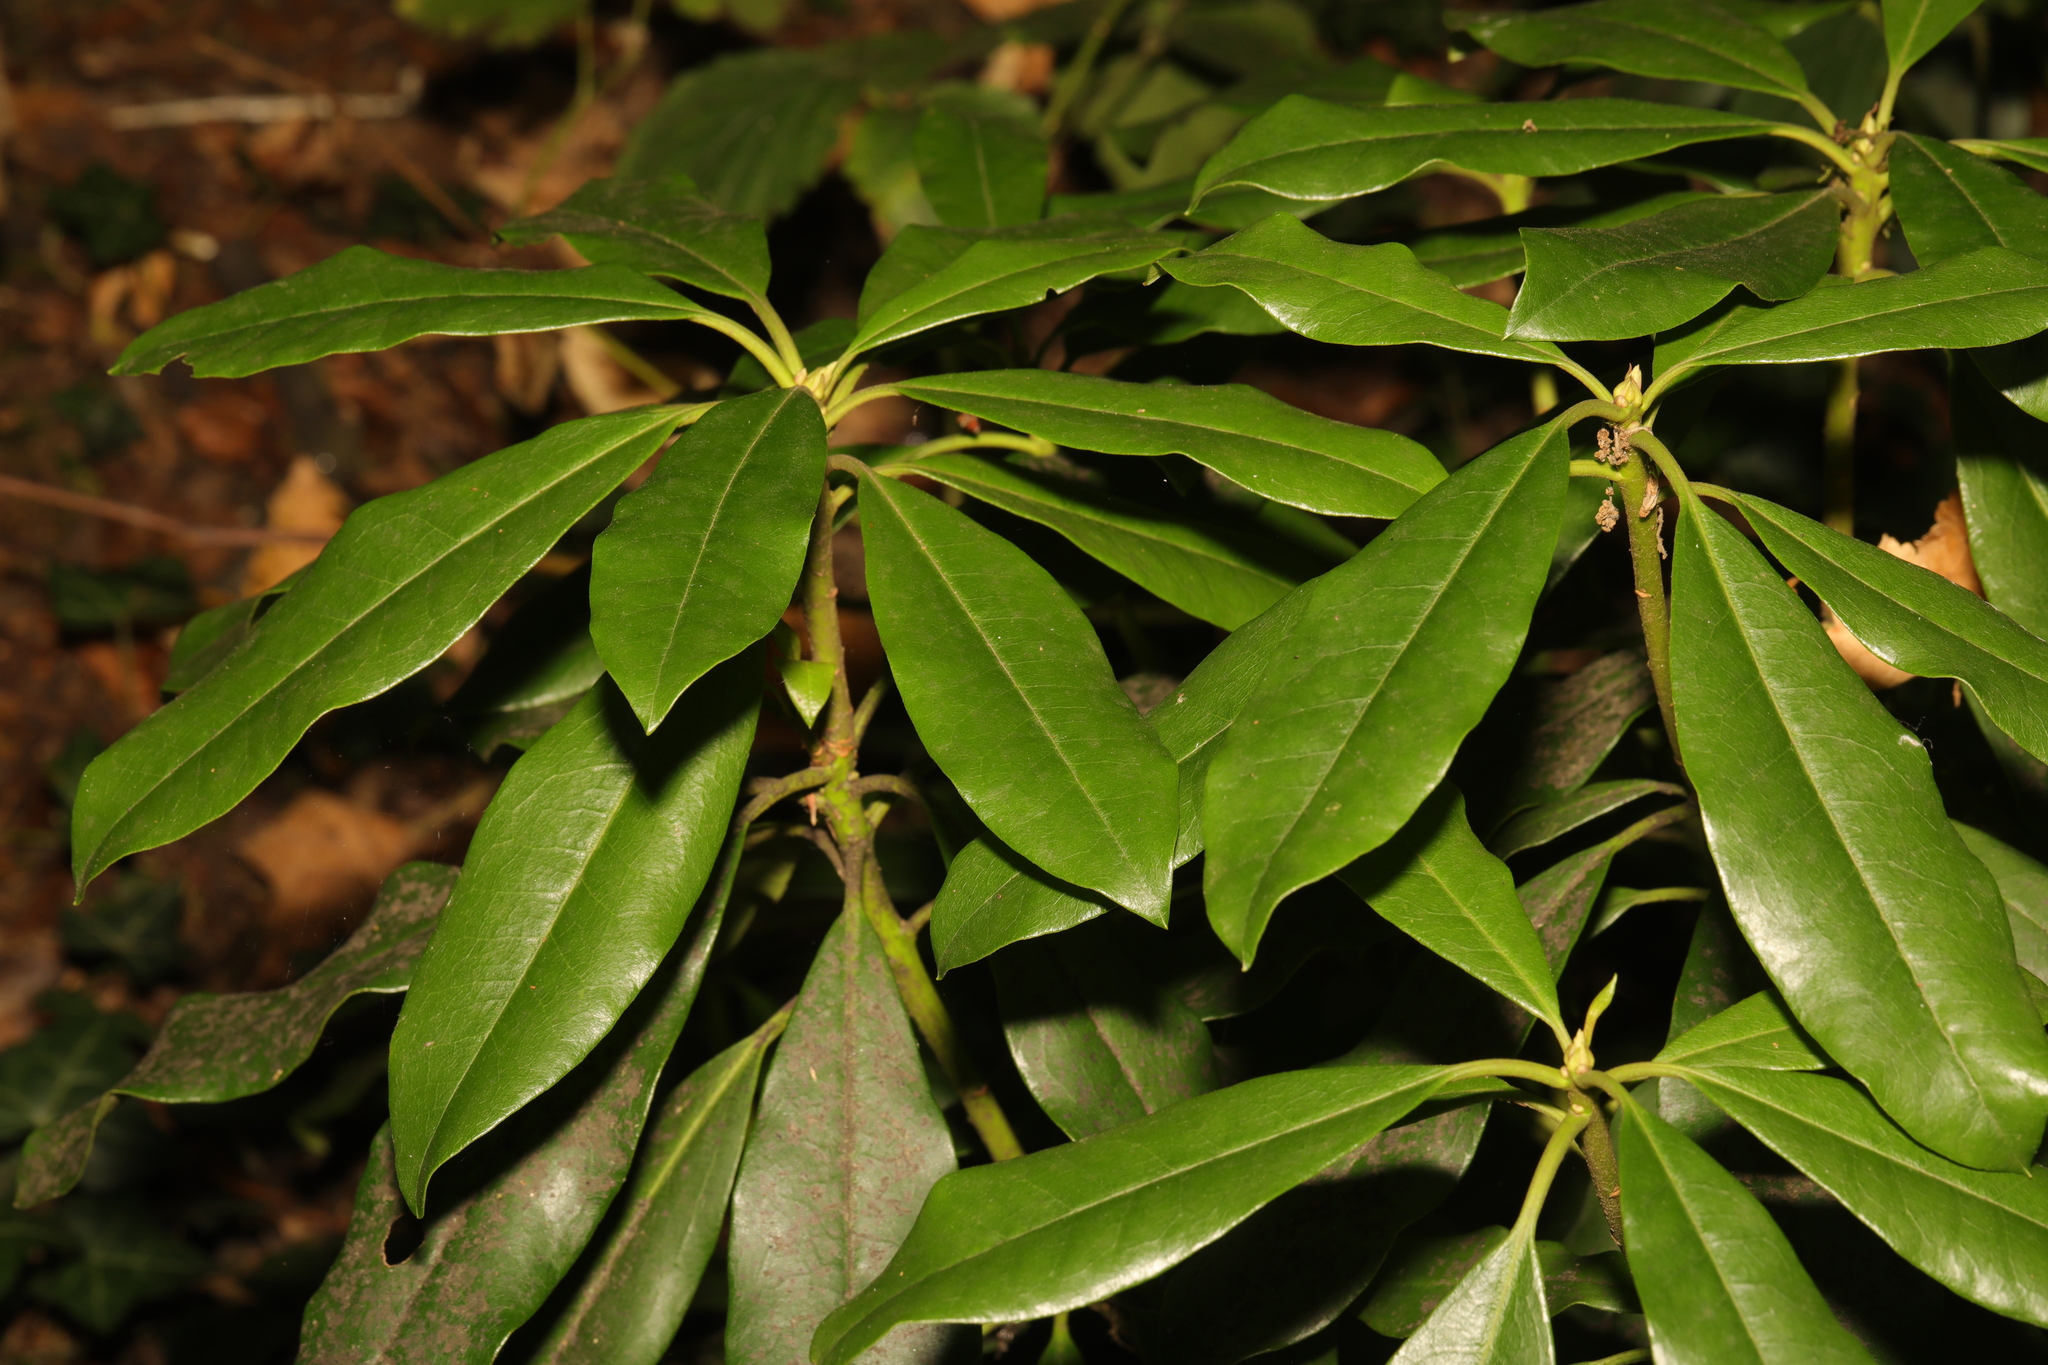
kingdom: Plantae
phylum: Tracheophyta
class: Magnoliopsida
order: Ericales
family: Ericaceae
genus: Rhododendron
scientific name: Rhododendron ponticum
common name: Rhododendron
